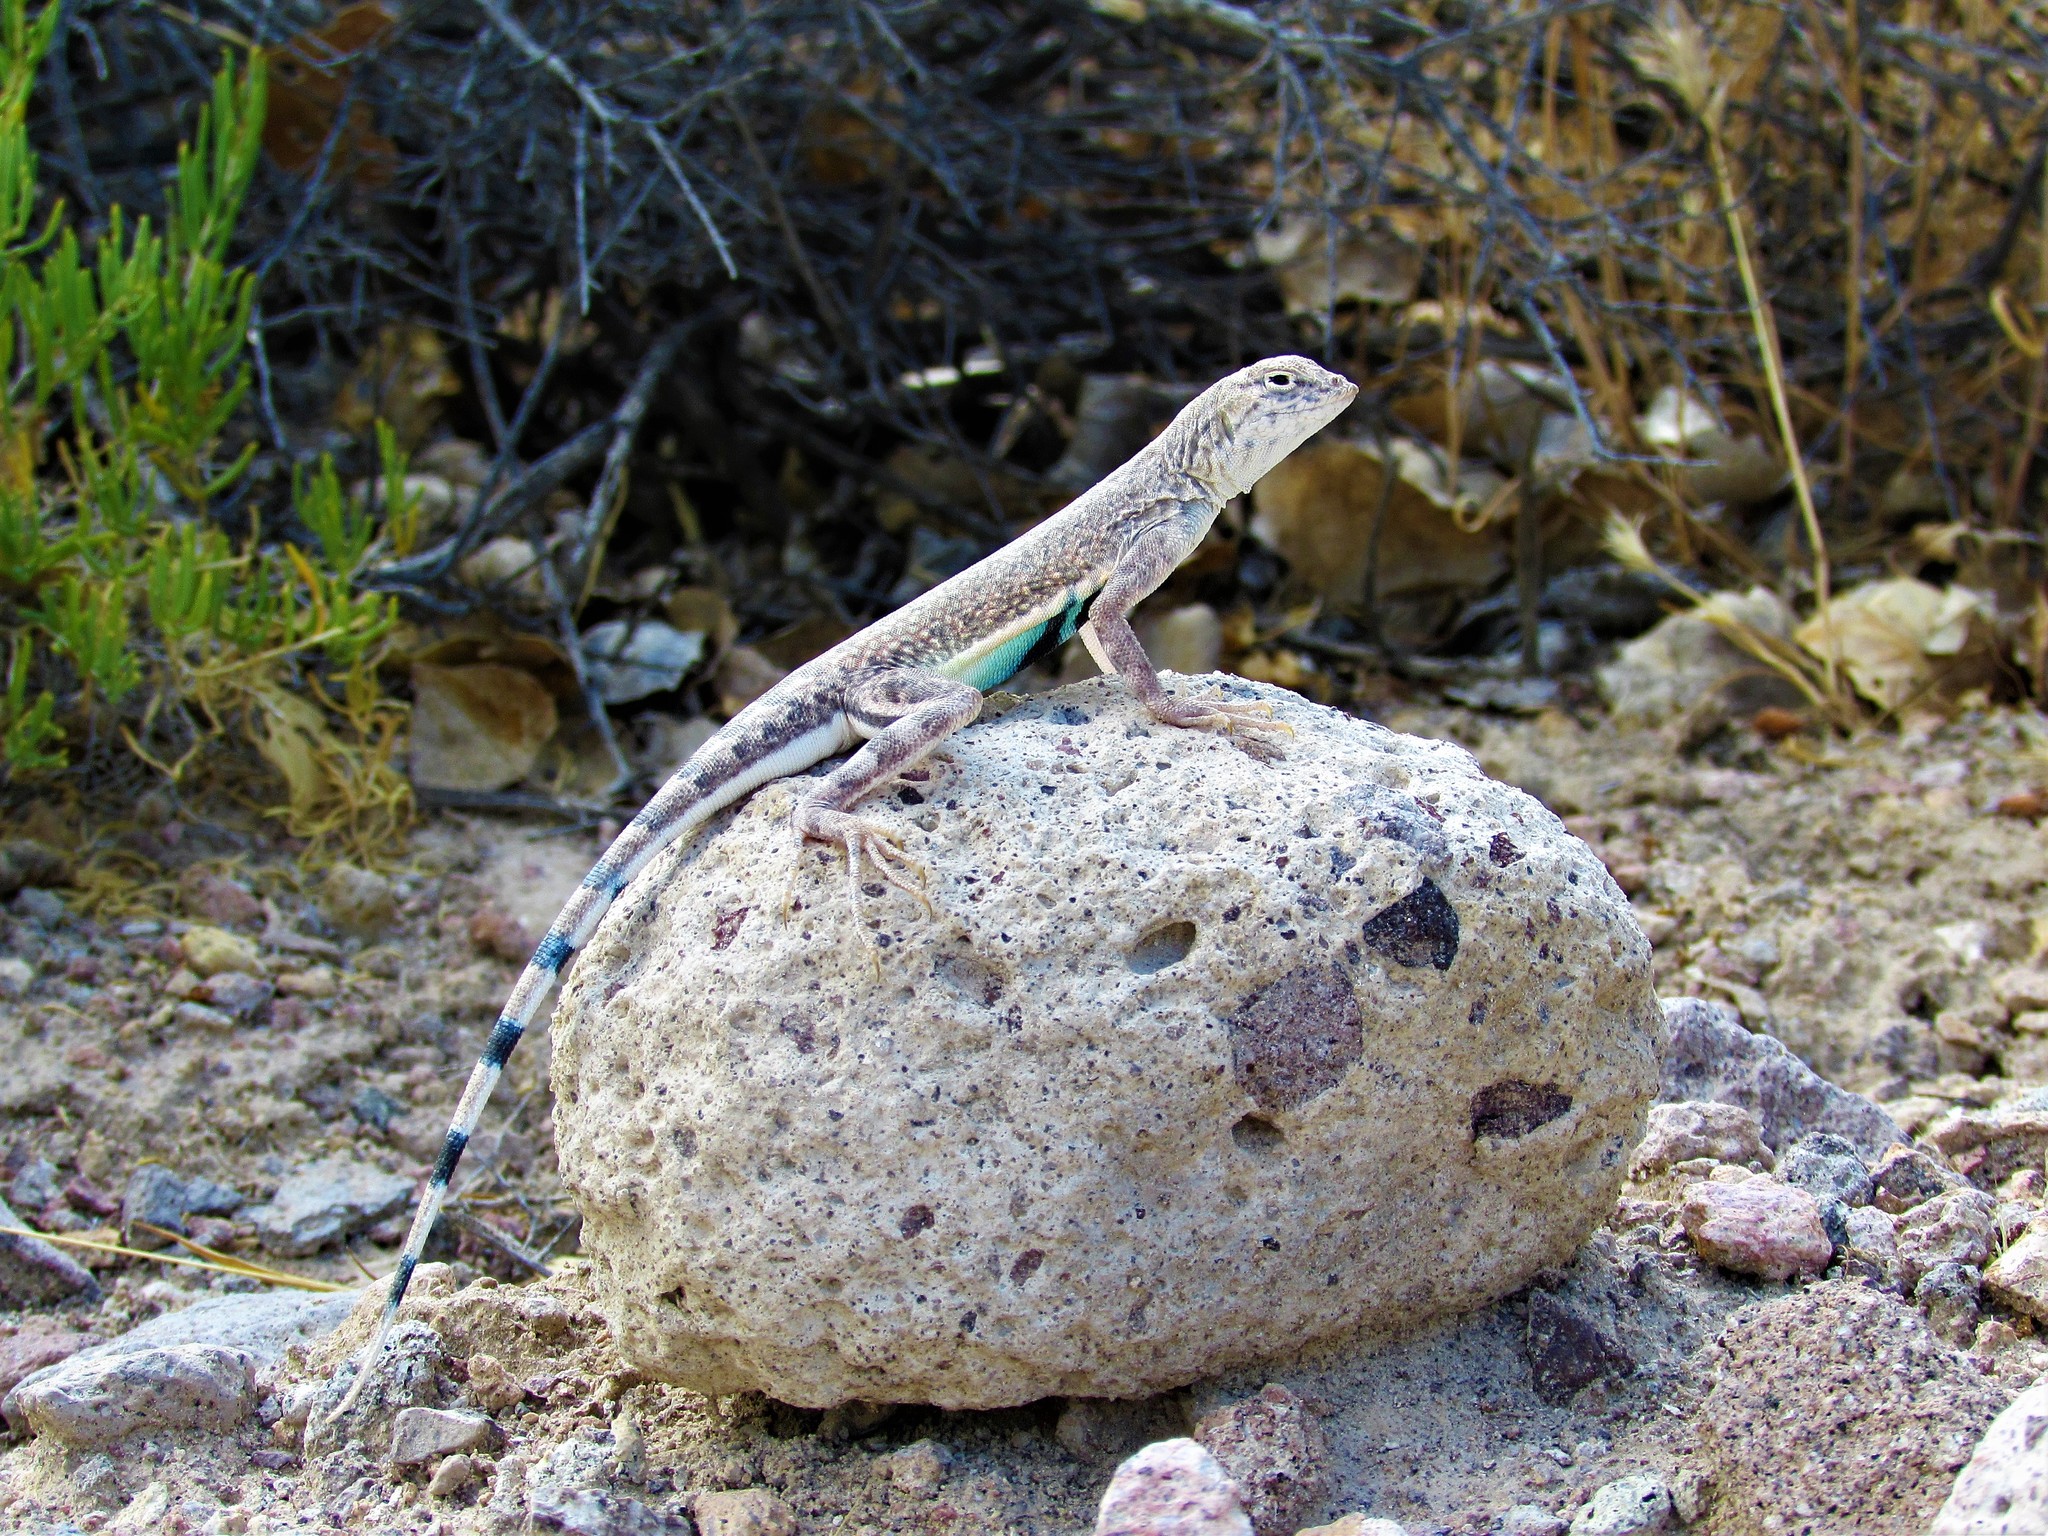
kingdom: Animalia
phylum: Chordata
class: Squamata
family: Phrynosomatidae
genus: Callisaurus
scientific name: Callisaurus draconoides
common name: Zebra-tailed lizard
